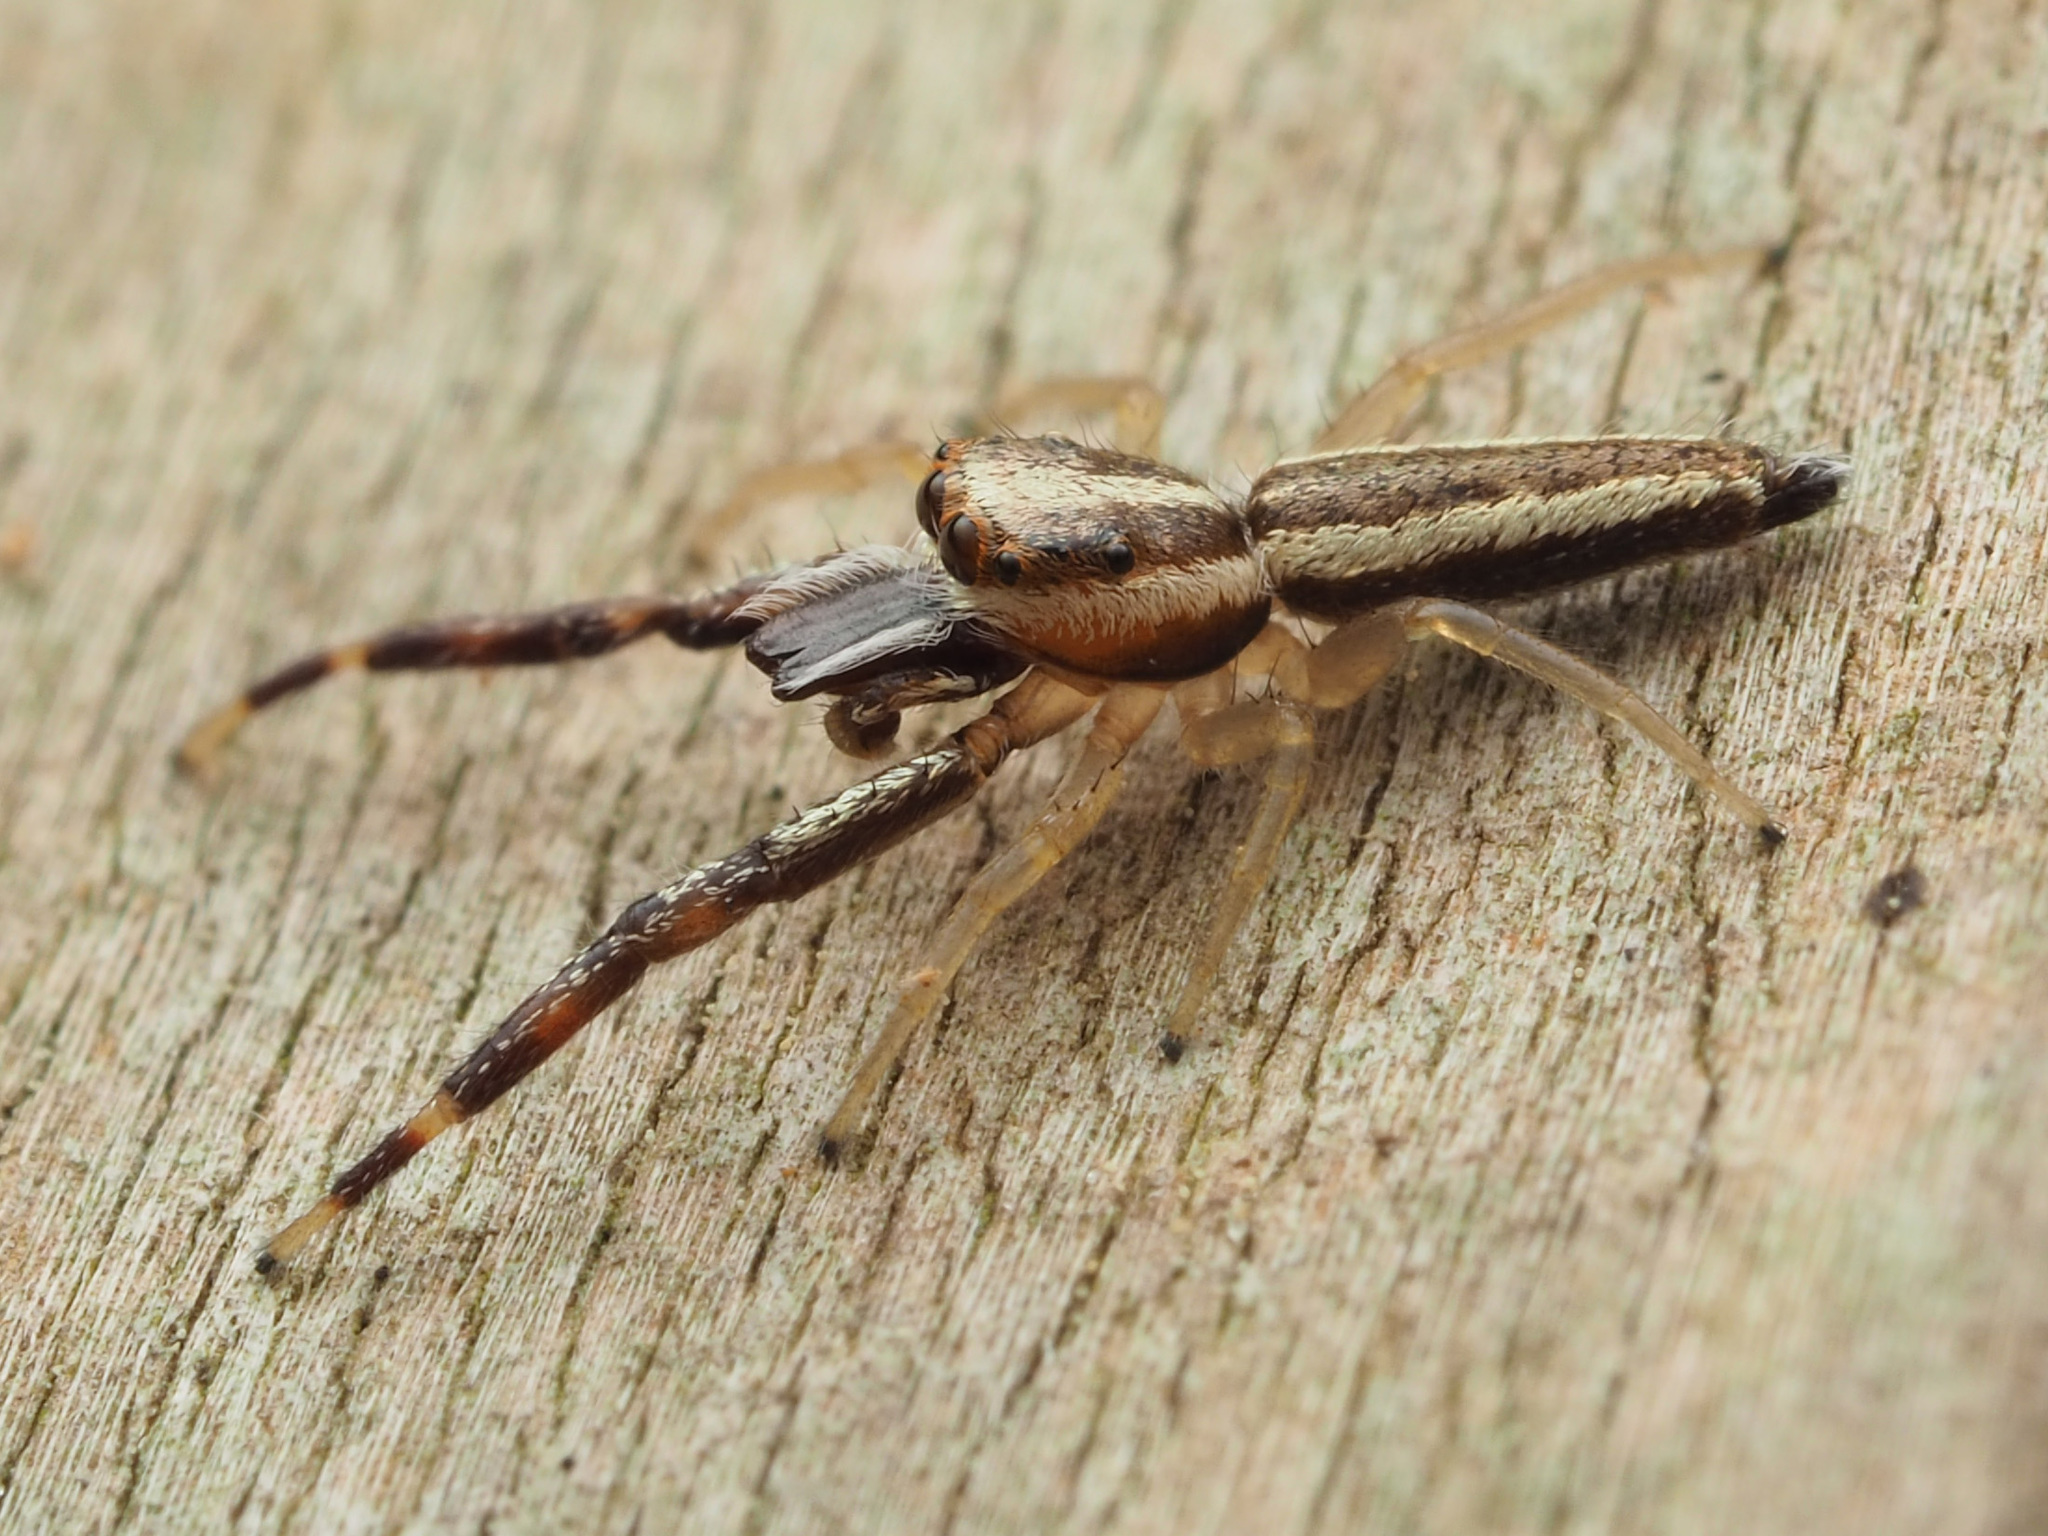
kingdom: Animalia
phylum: Arthropoda
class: Arachnida
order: Araneae
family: Salticidae
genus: Hentzia
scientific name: Hentzia grenada
